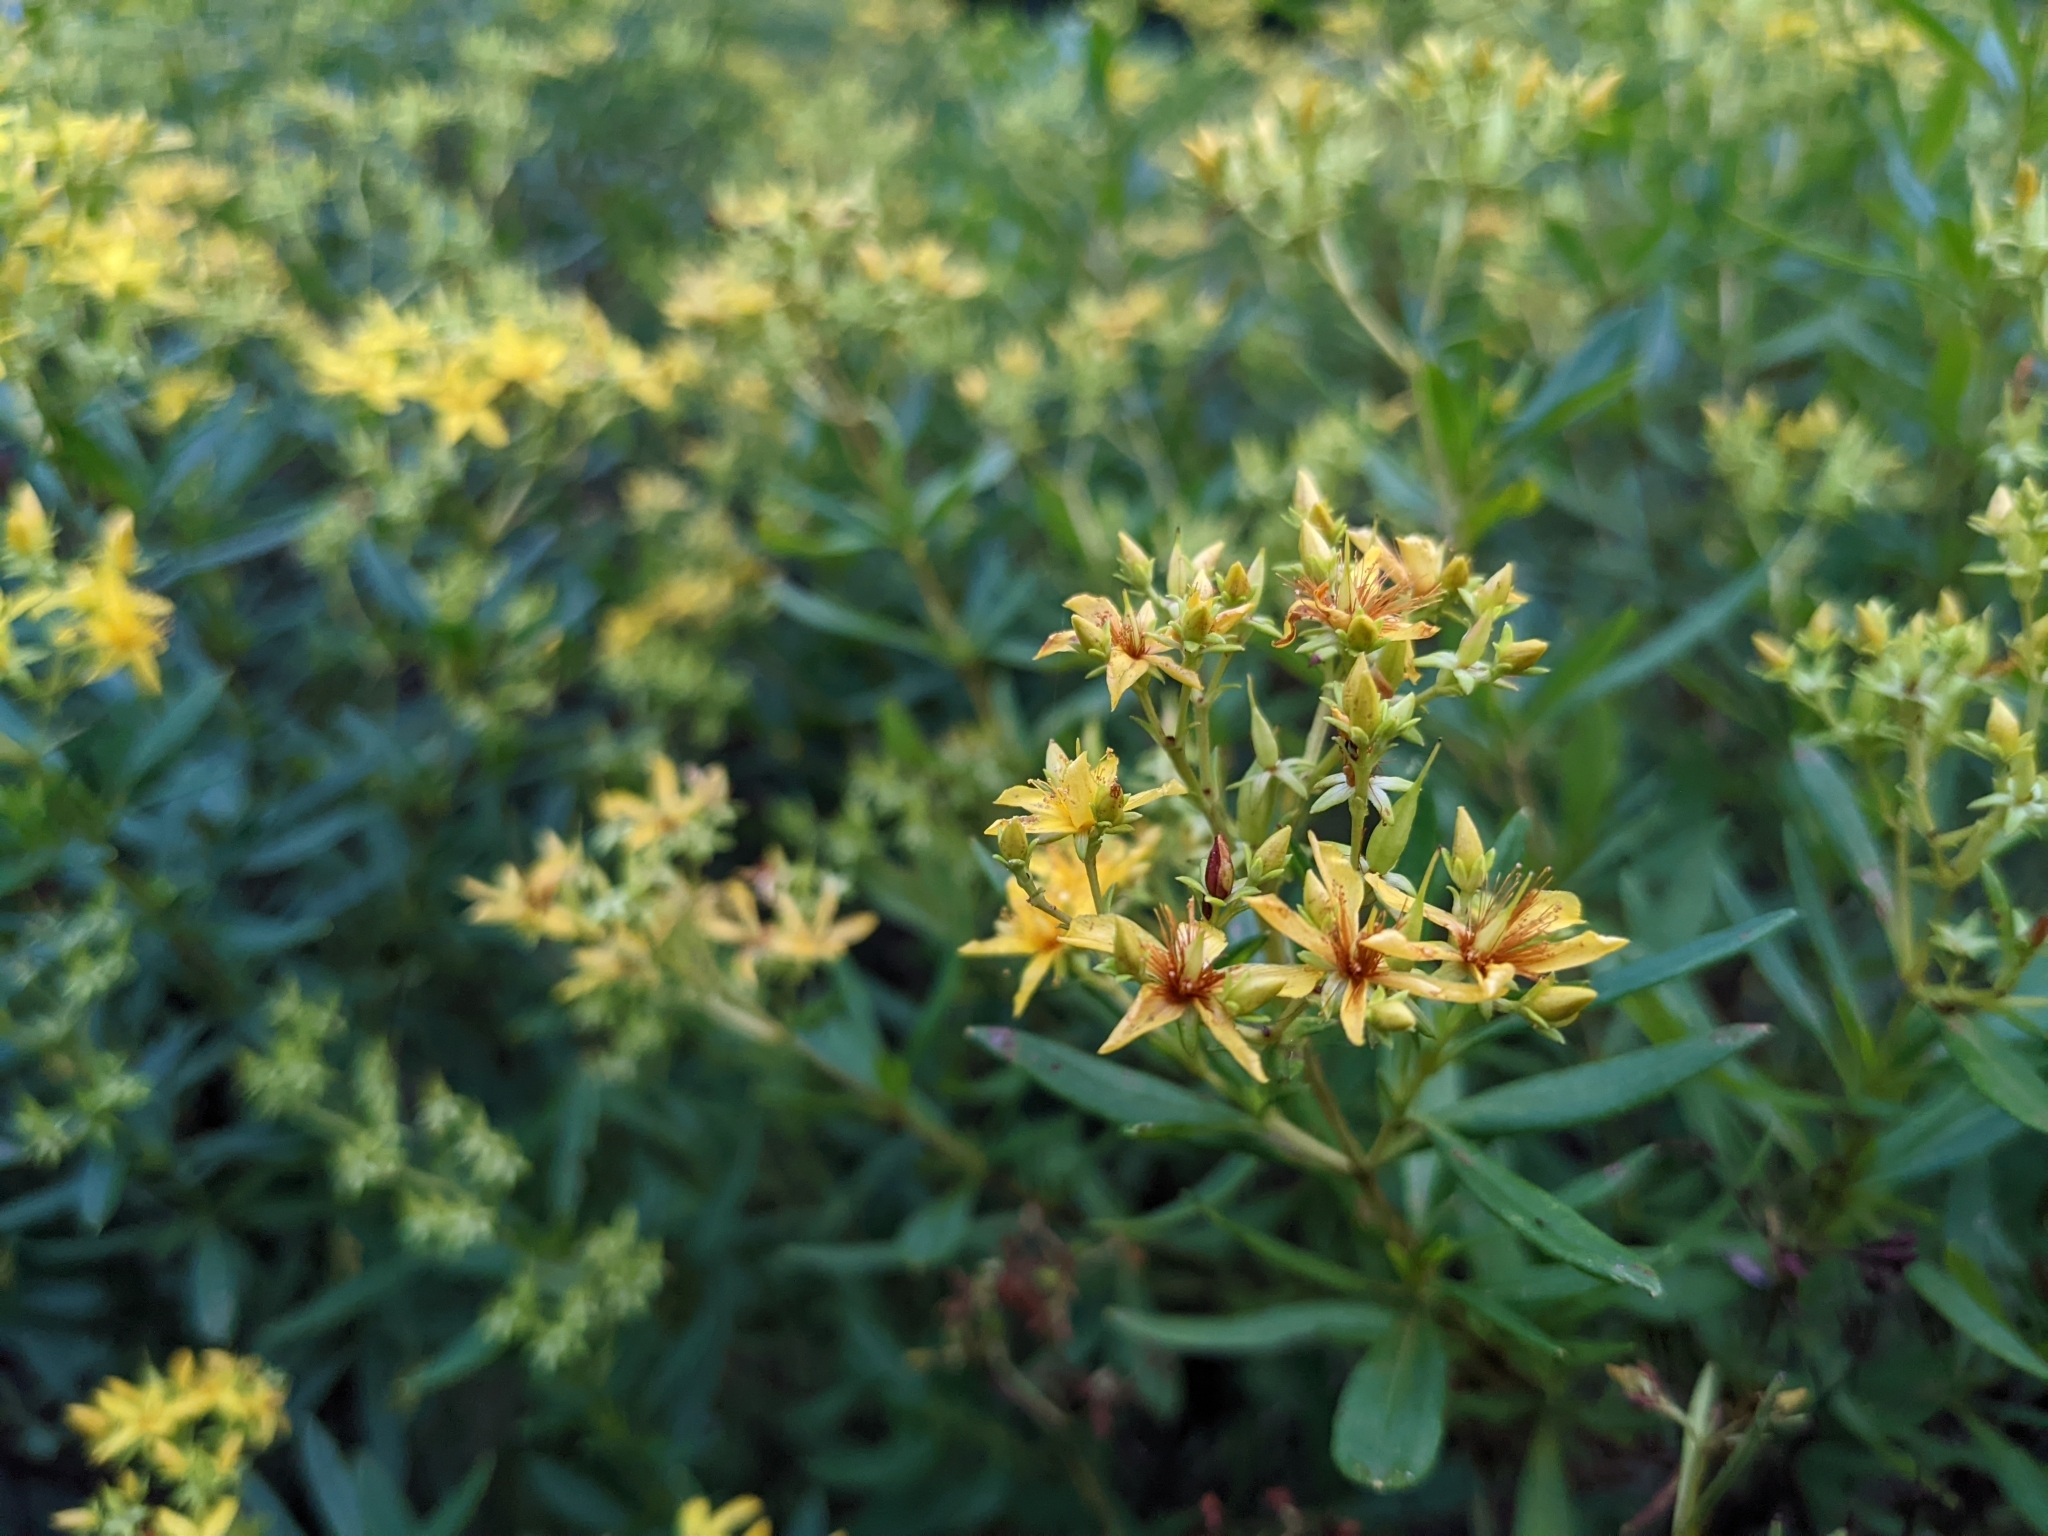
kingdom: Plantae
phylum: Tracheophyta
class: Magnoliopsida
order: Malpighiales
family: Hypericaceae
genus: Hypericum
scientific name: Hypericum densiflorum
